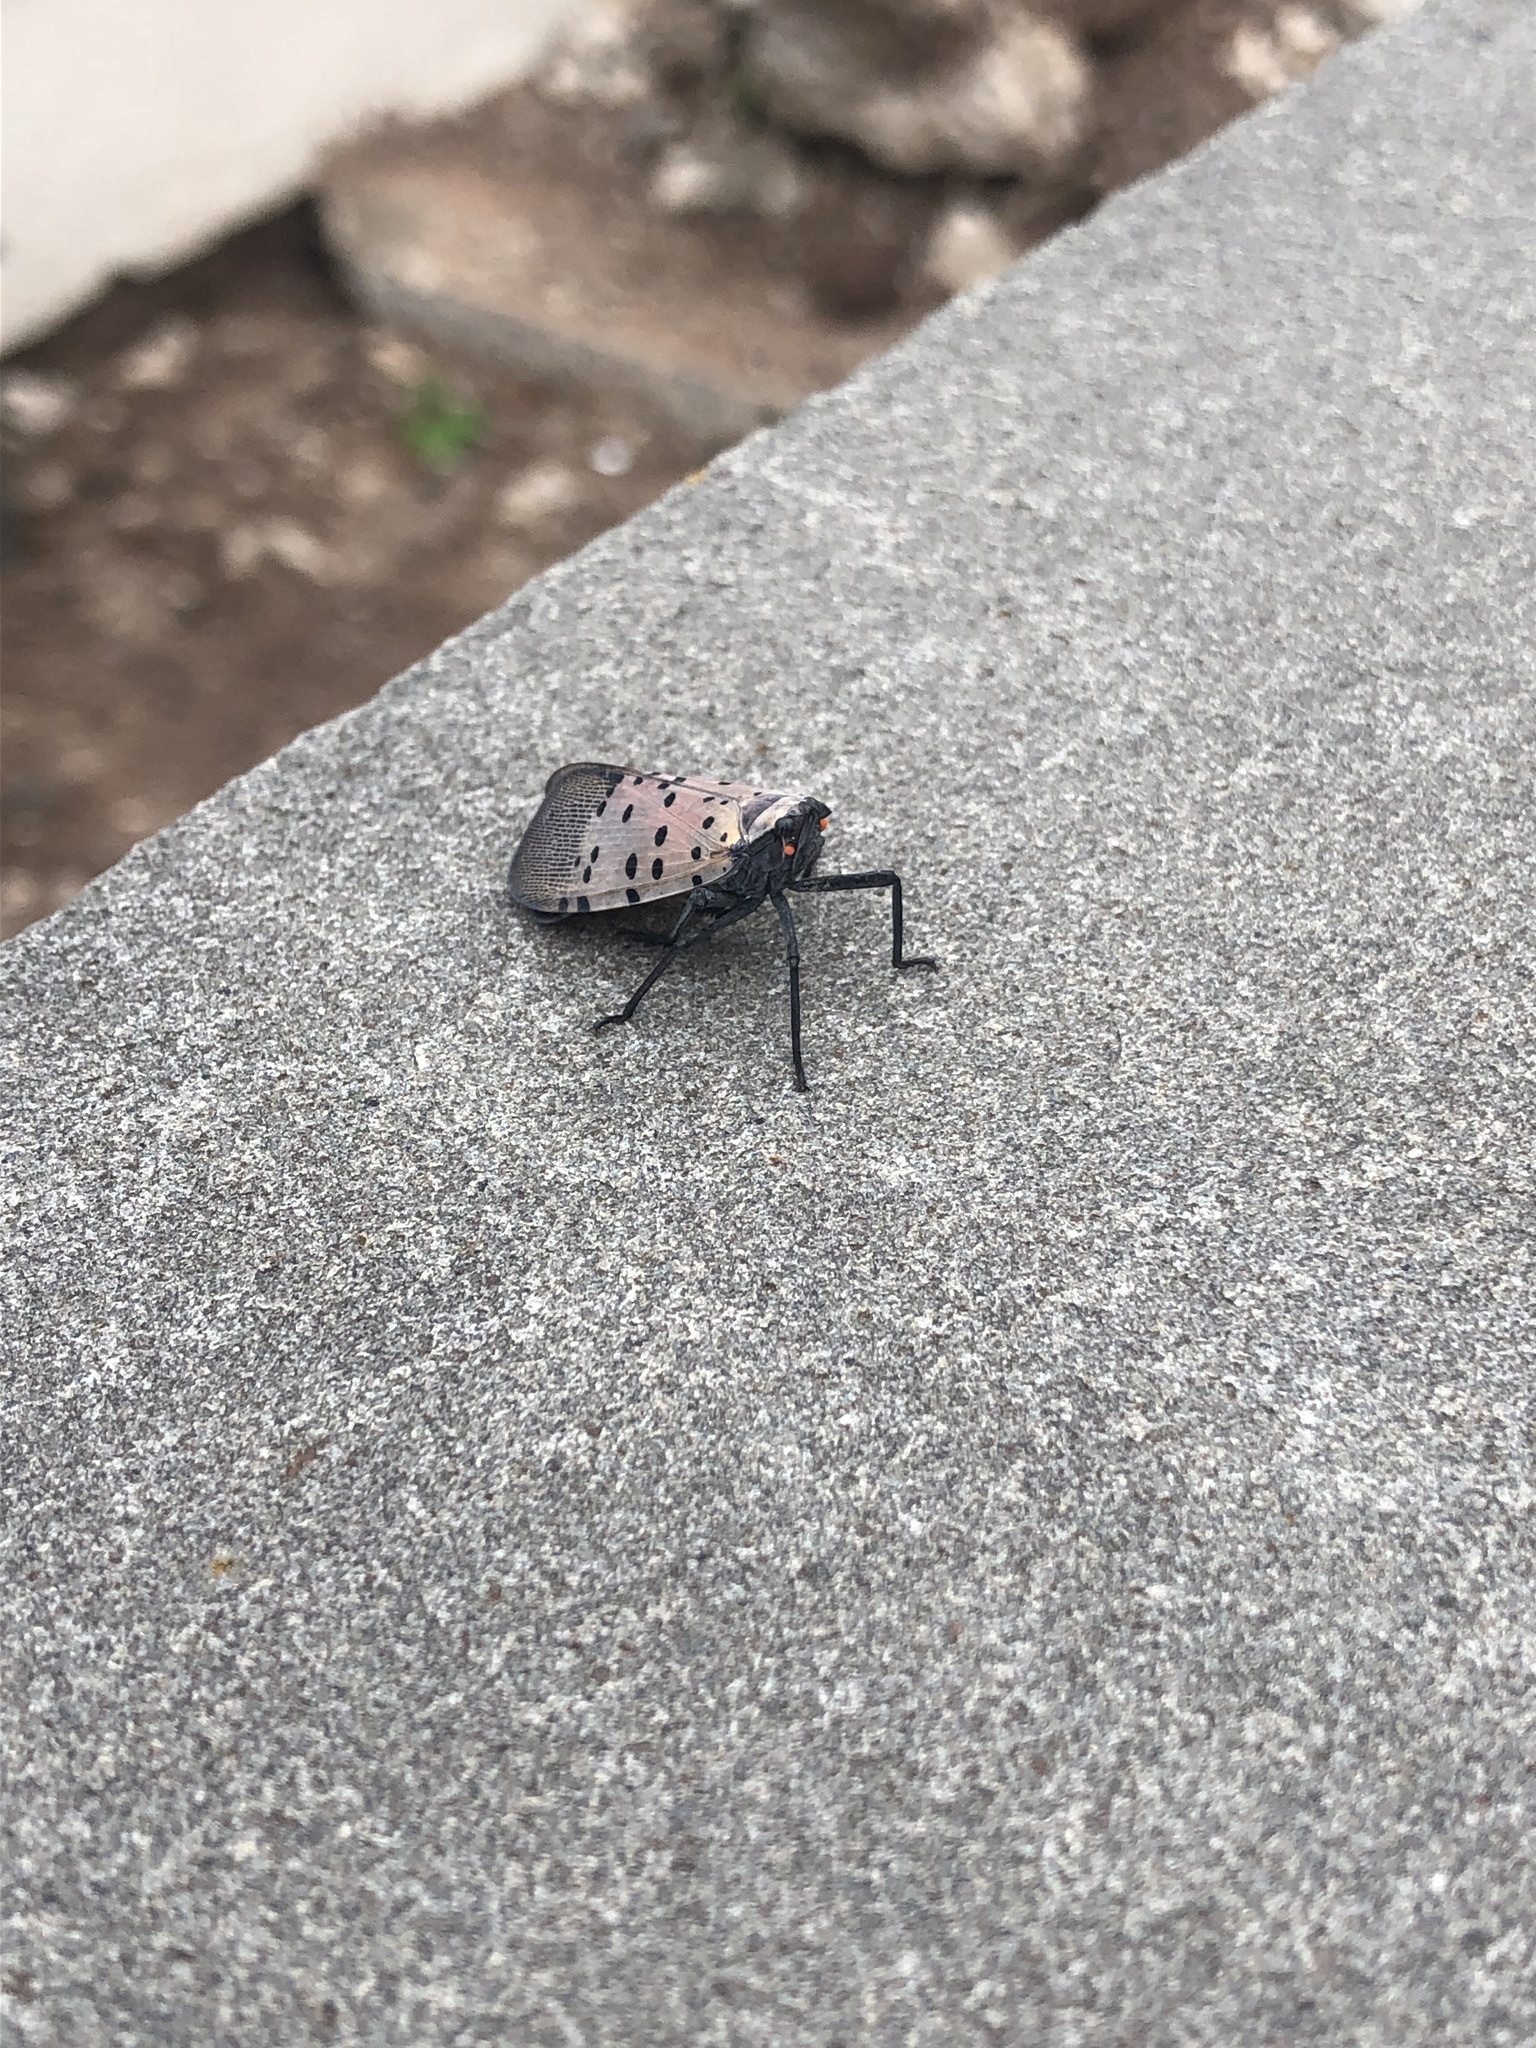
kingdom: Animalia
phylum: Arthropoda
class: Insecta
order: Hemiptera
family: Fulgoridae
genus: Lycorma
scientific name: Lycorma delicatula
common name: Spotted lanternfly
